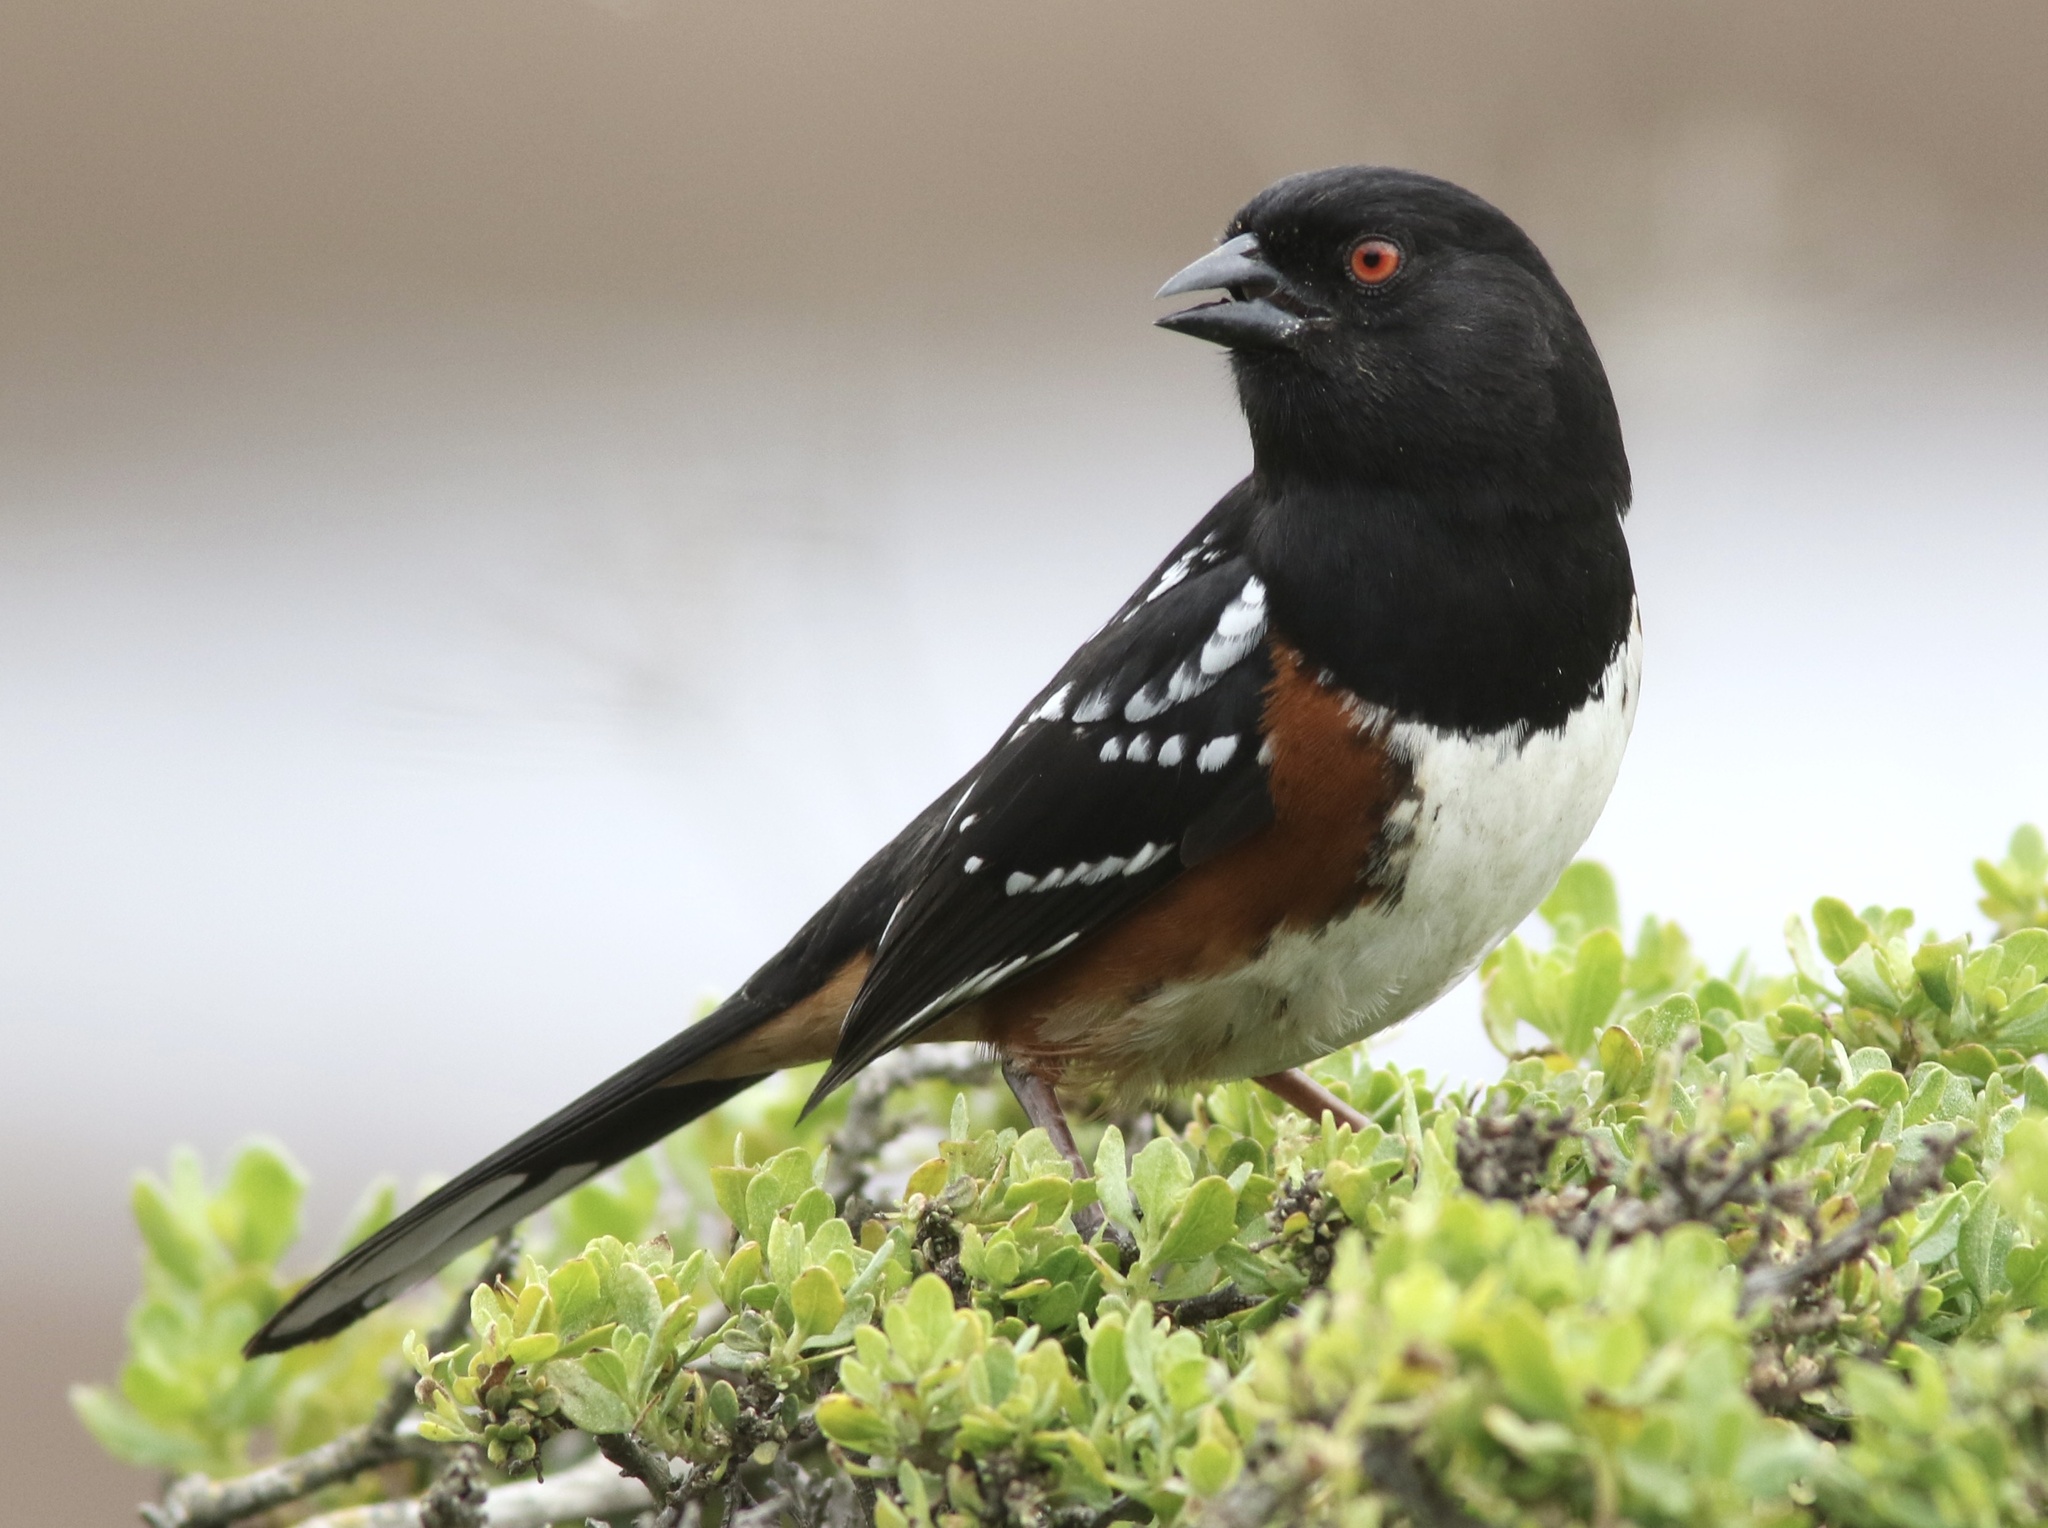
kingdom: Animalia
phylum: Chordata
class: Aves
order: Passeriformes
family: Passerellidae
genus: Pipilo
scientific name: Pipilo maculatus
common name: Spotted towhee
